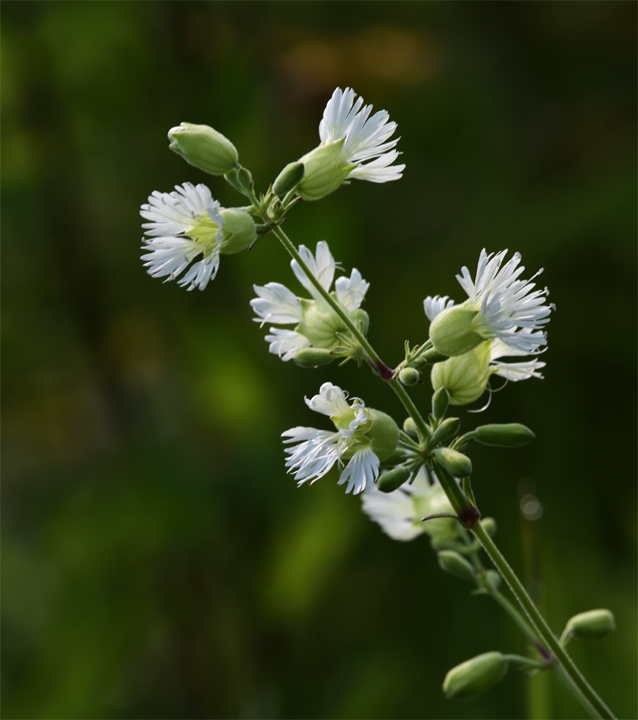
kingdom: Plantae
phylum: Tracheophyta
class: Magnoliopsida
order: Caryophyllales
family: Caryophyllaceae
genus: Silene
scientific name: Silene stellata
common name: Starry campion
